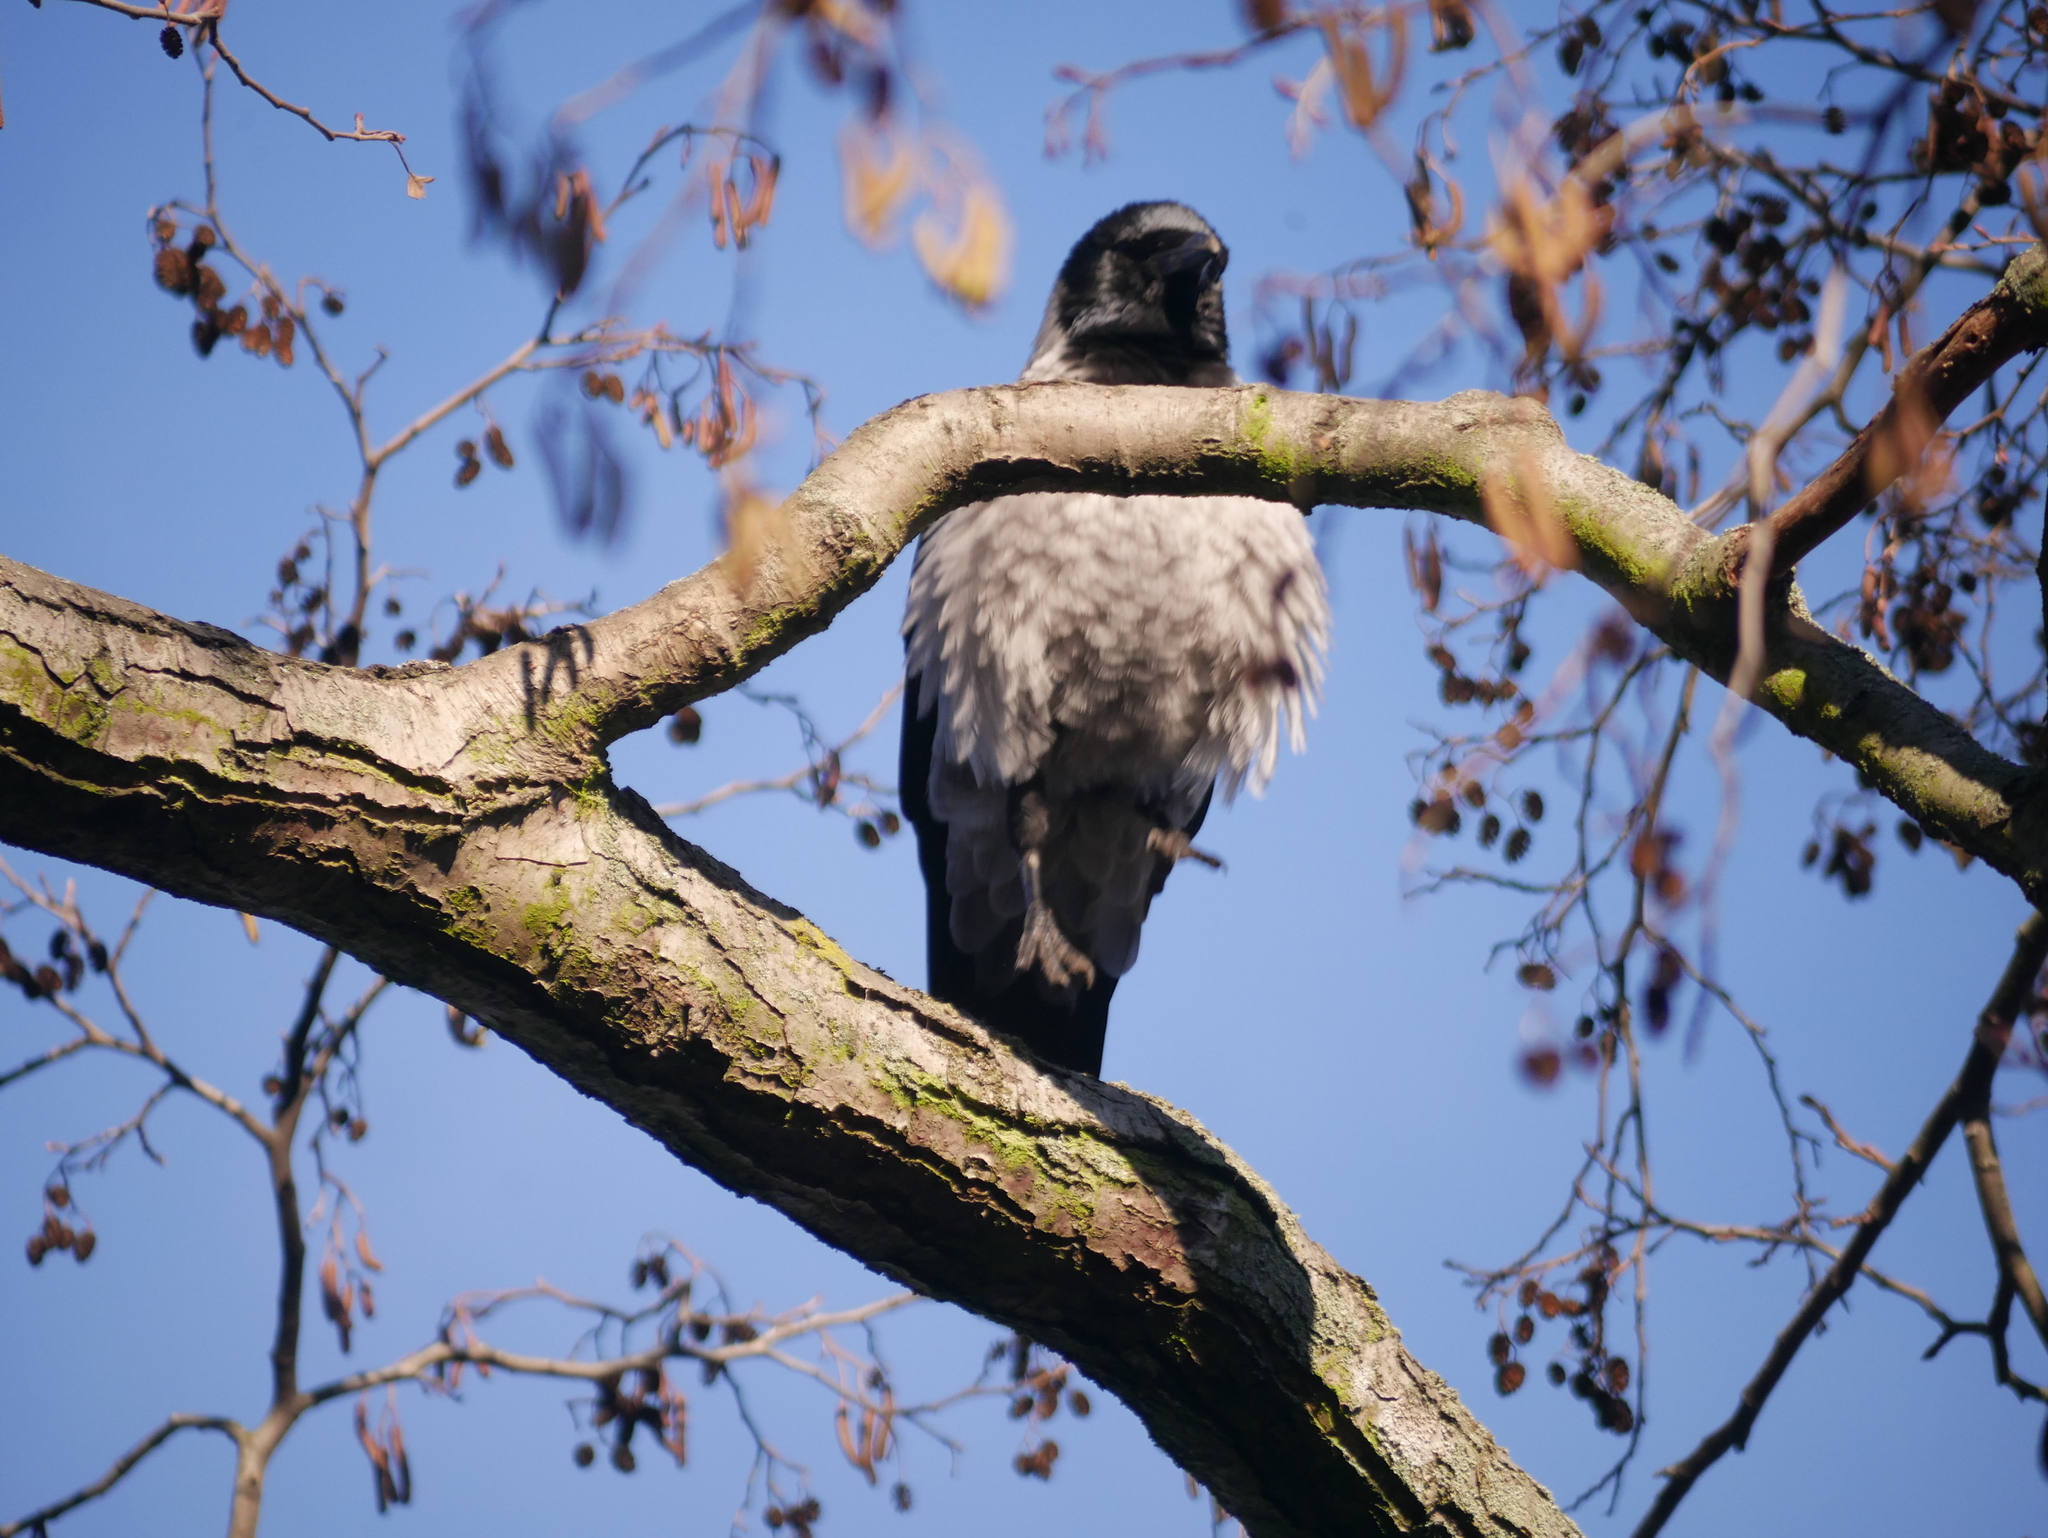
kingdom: Animalia
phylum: Chordata
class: Aves
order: Passeriformes
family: Corvidae
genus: Corvus
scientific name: Corvus cornix
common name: Hooded crow
